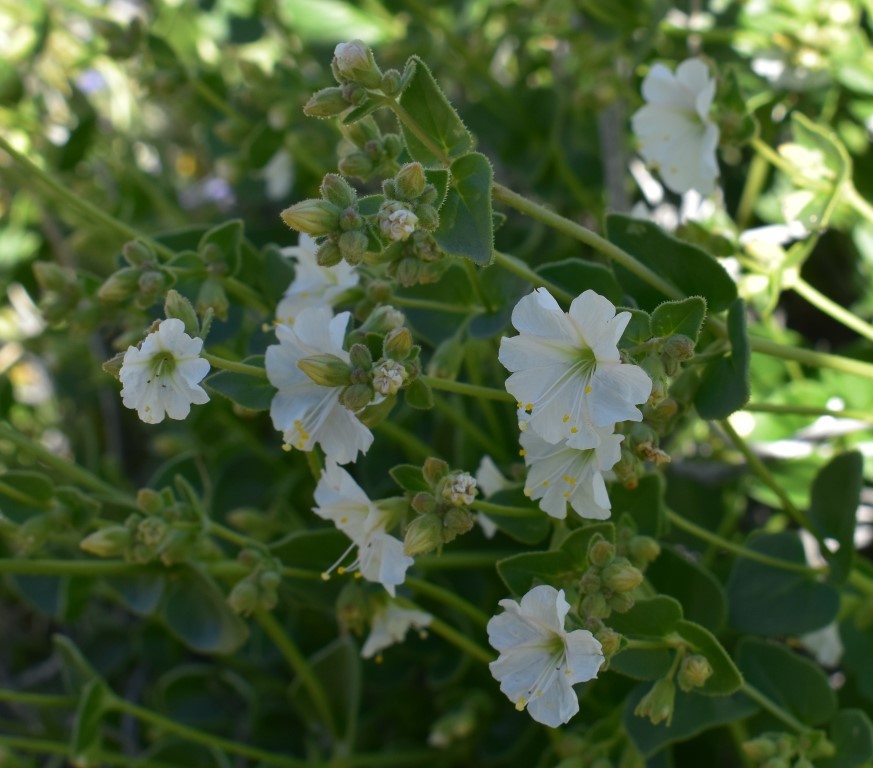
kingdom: Plantae
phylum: Tracheophyta
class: Magnoliopsida
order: Caryophyllales
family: Nyctaginaceae
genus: Mirabilis
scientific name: Mirabilis laevis
